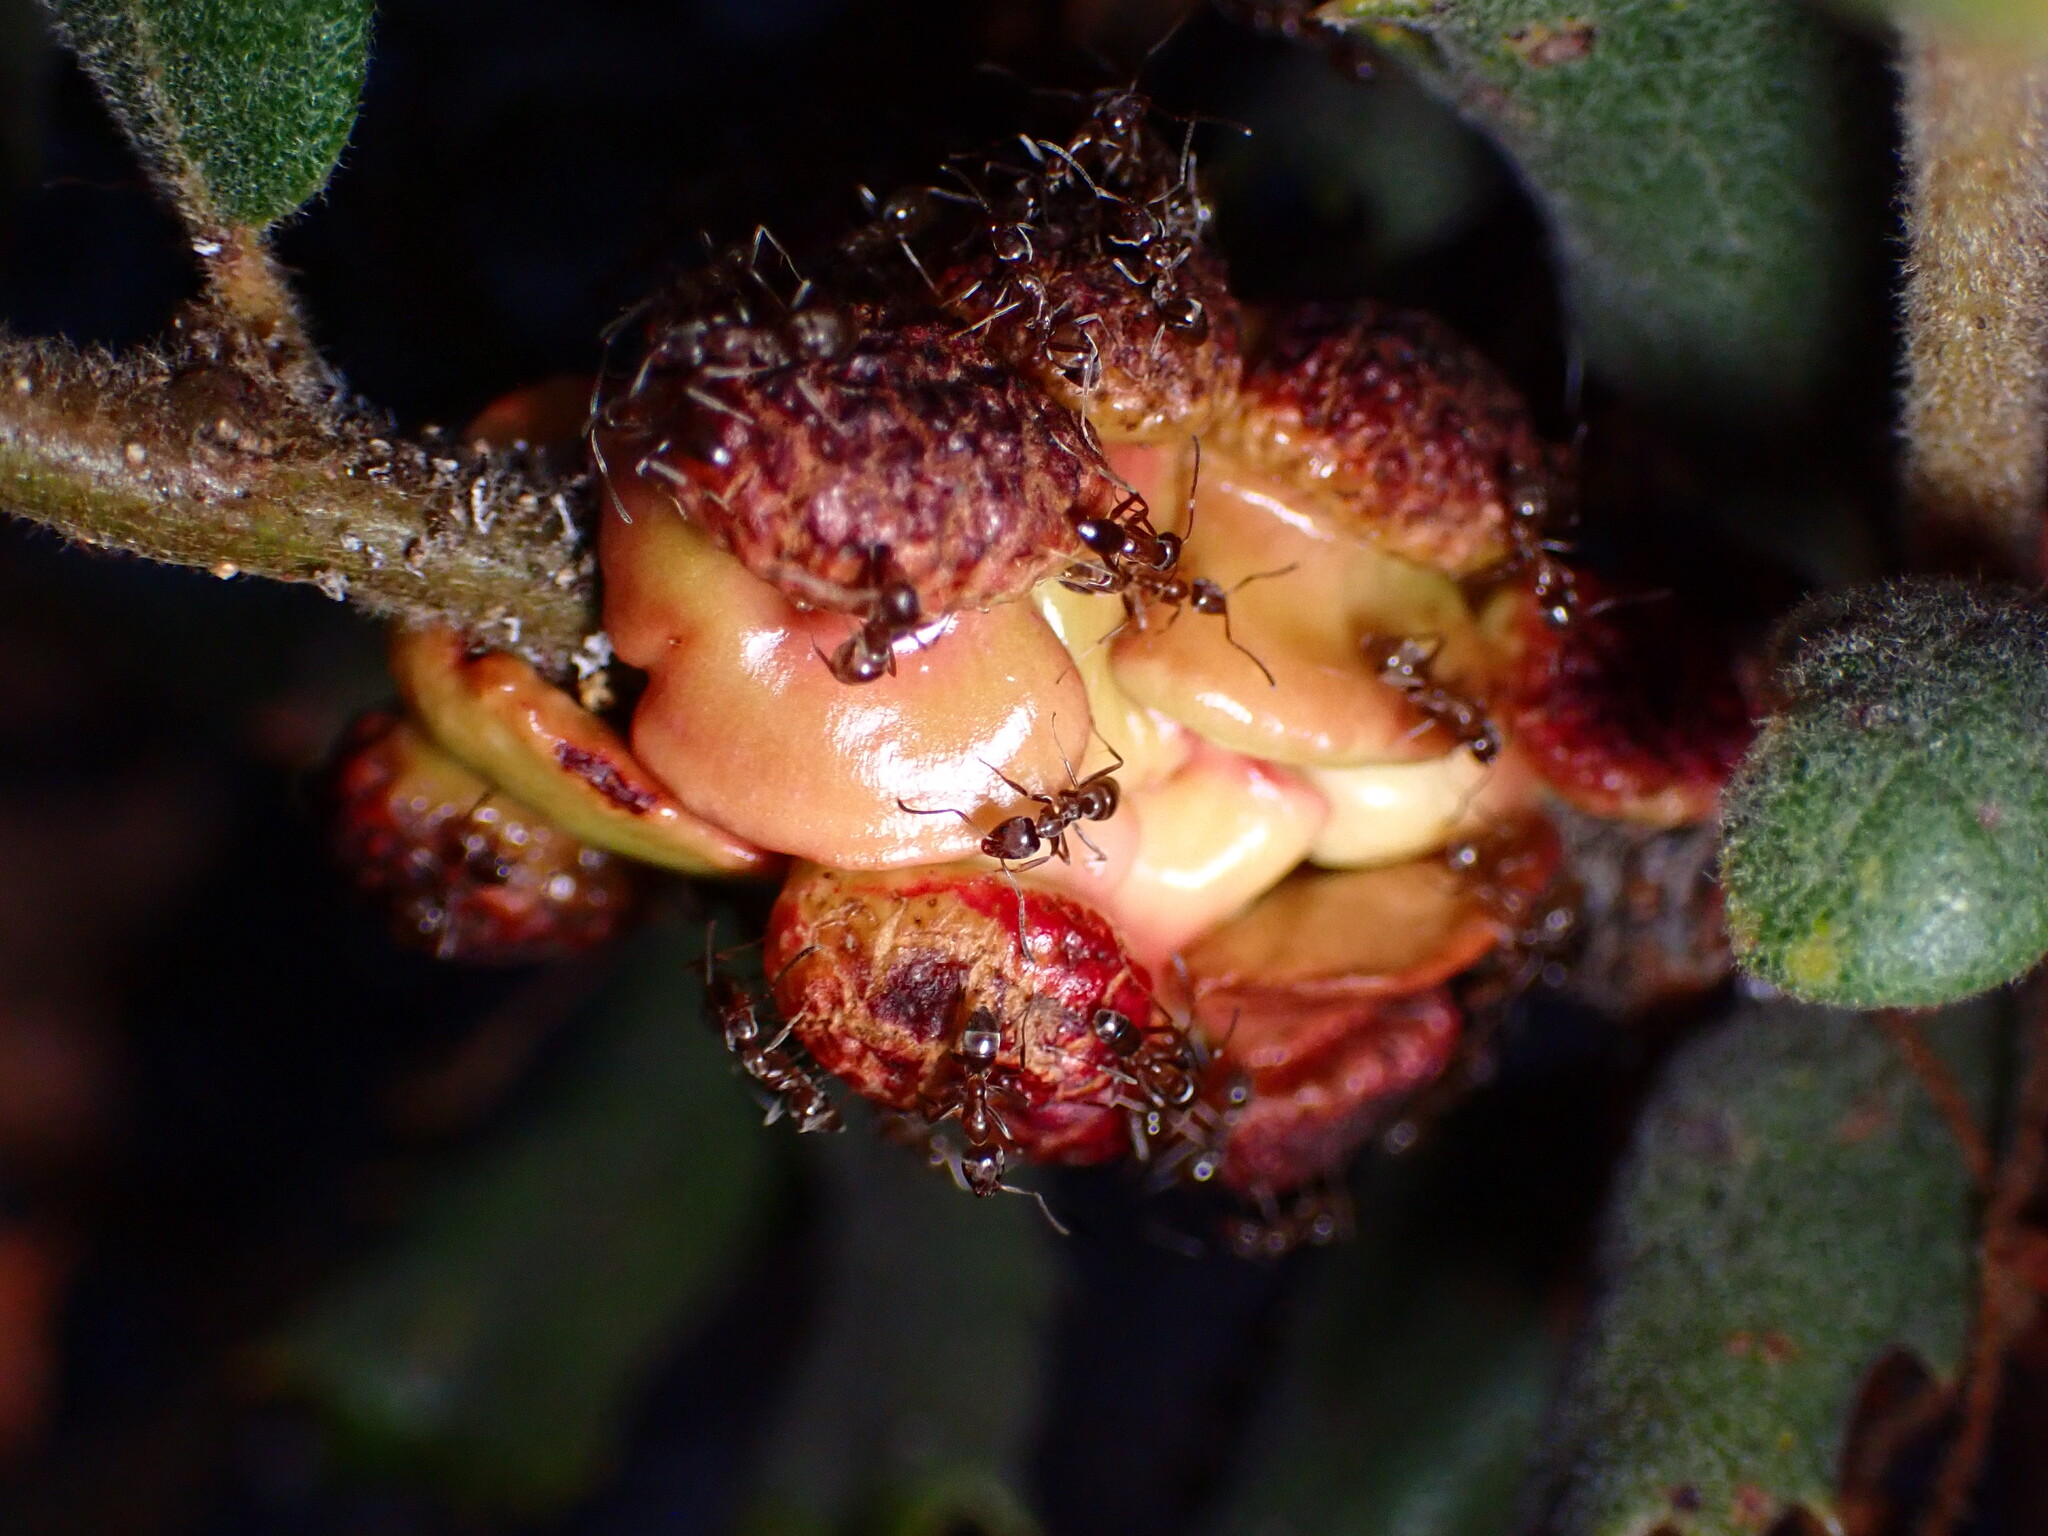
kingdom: Animalia
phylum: Arthropoda
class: Insecta
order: Hymenoptera
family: Cynipidae
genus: Disholcaspis
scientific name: Disholcaspis prehensa
